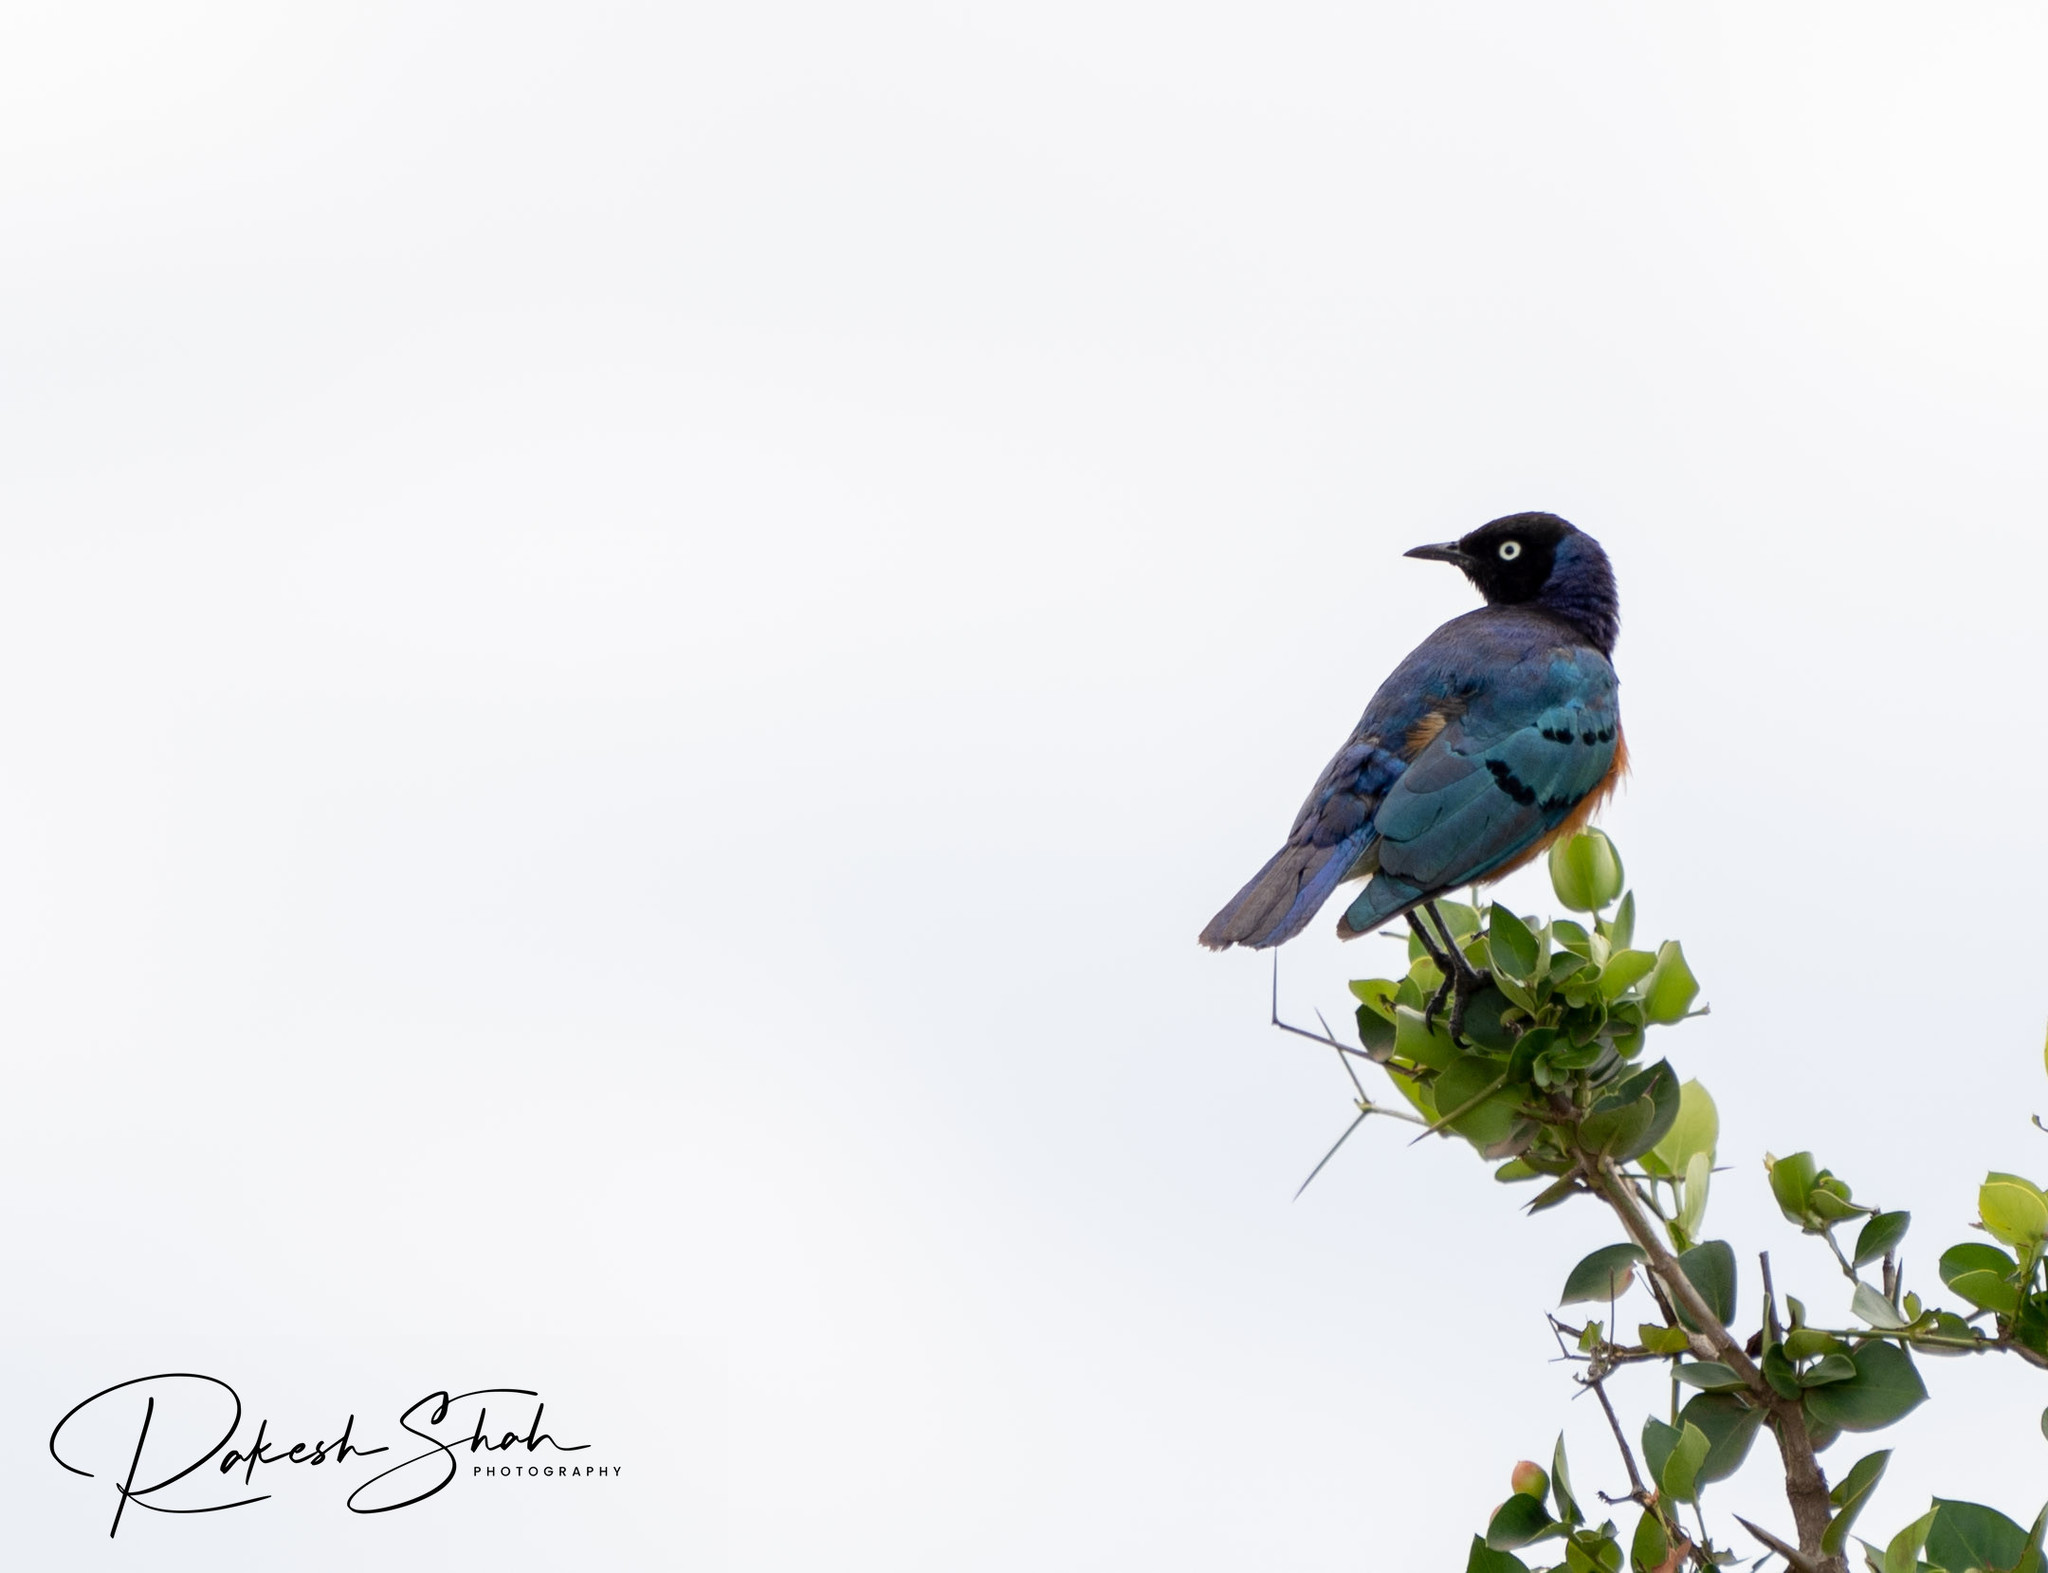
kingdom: Animalia
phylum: Chordata
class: Aves
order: Passeriformes
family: Sturnidae
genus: Lamprotornis
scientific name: Lamprotornis superbus
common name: Superb starling
